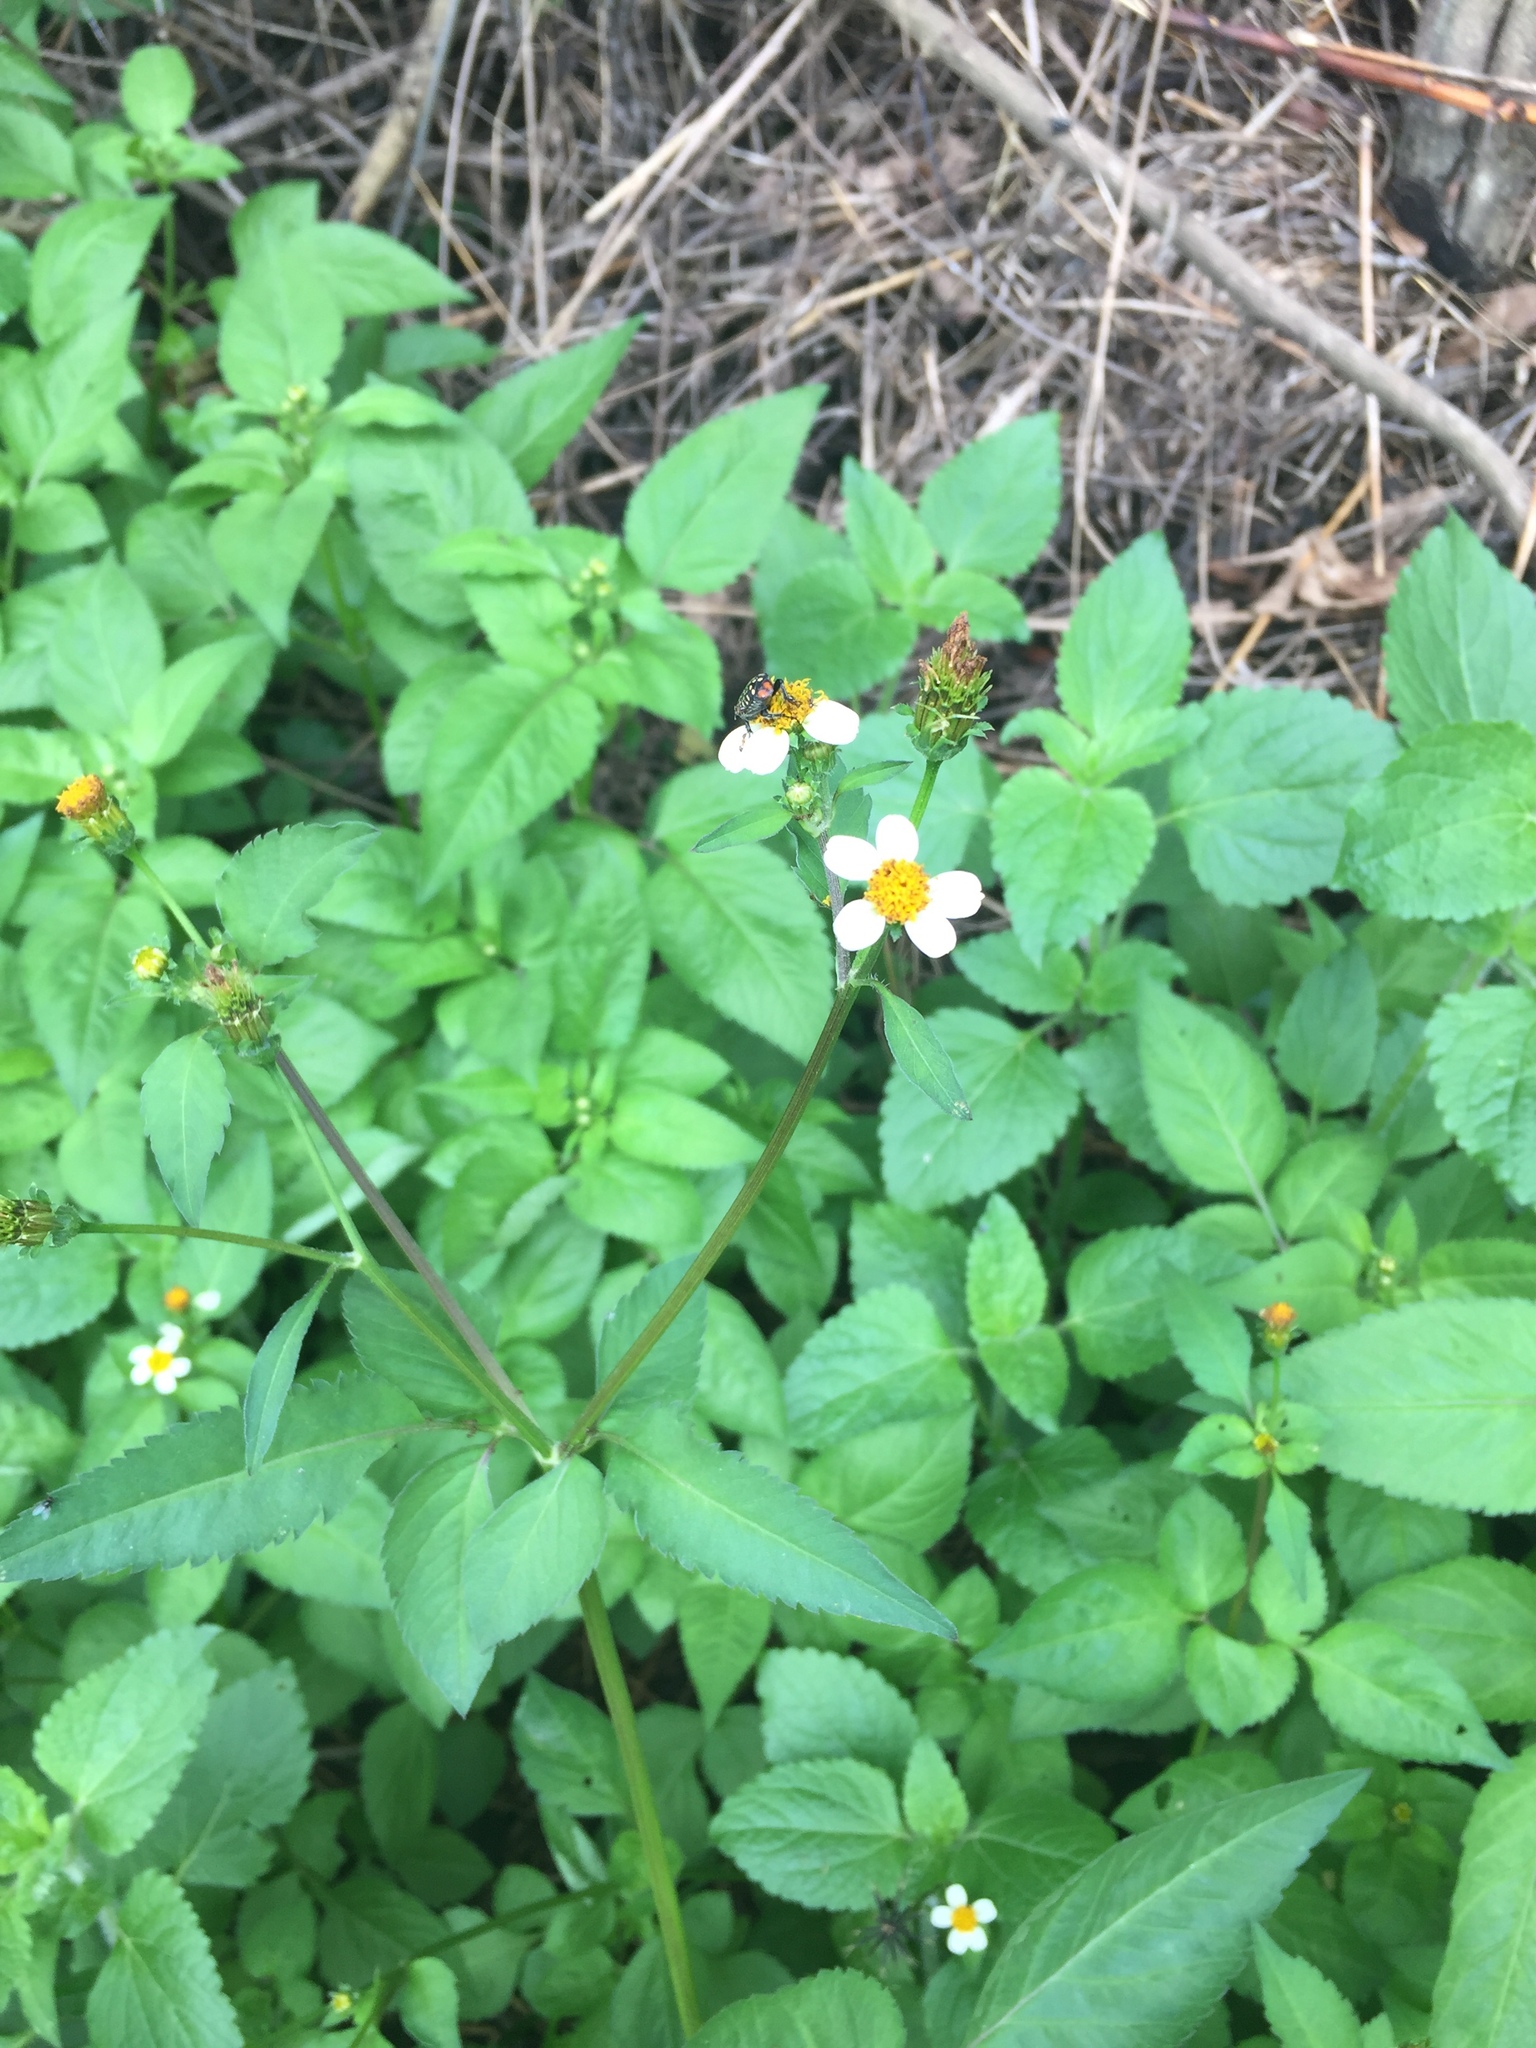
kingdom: Plantae
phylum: Tracheophyta
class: Magnoliopsida
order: Asterales
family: Asteraceae
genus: Bidens
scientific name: Bidens pilosa
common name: Black-jack
